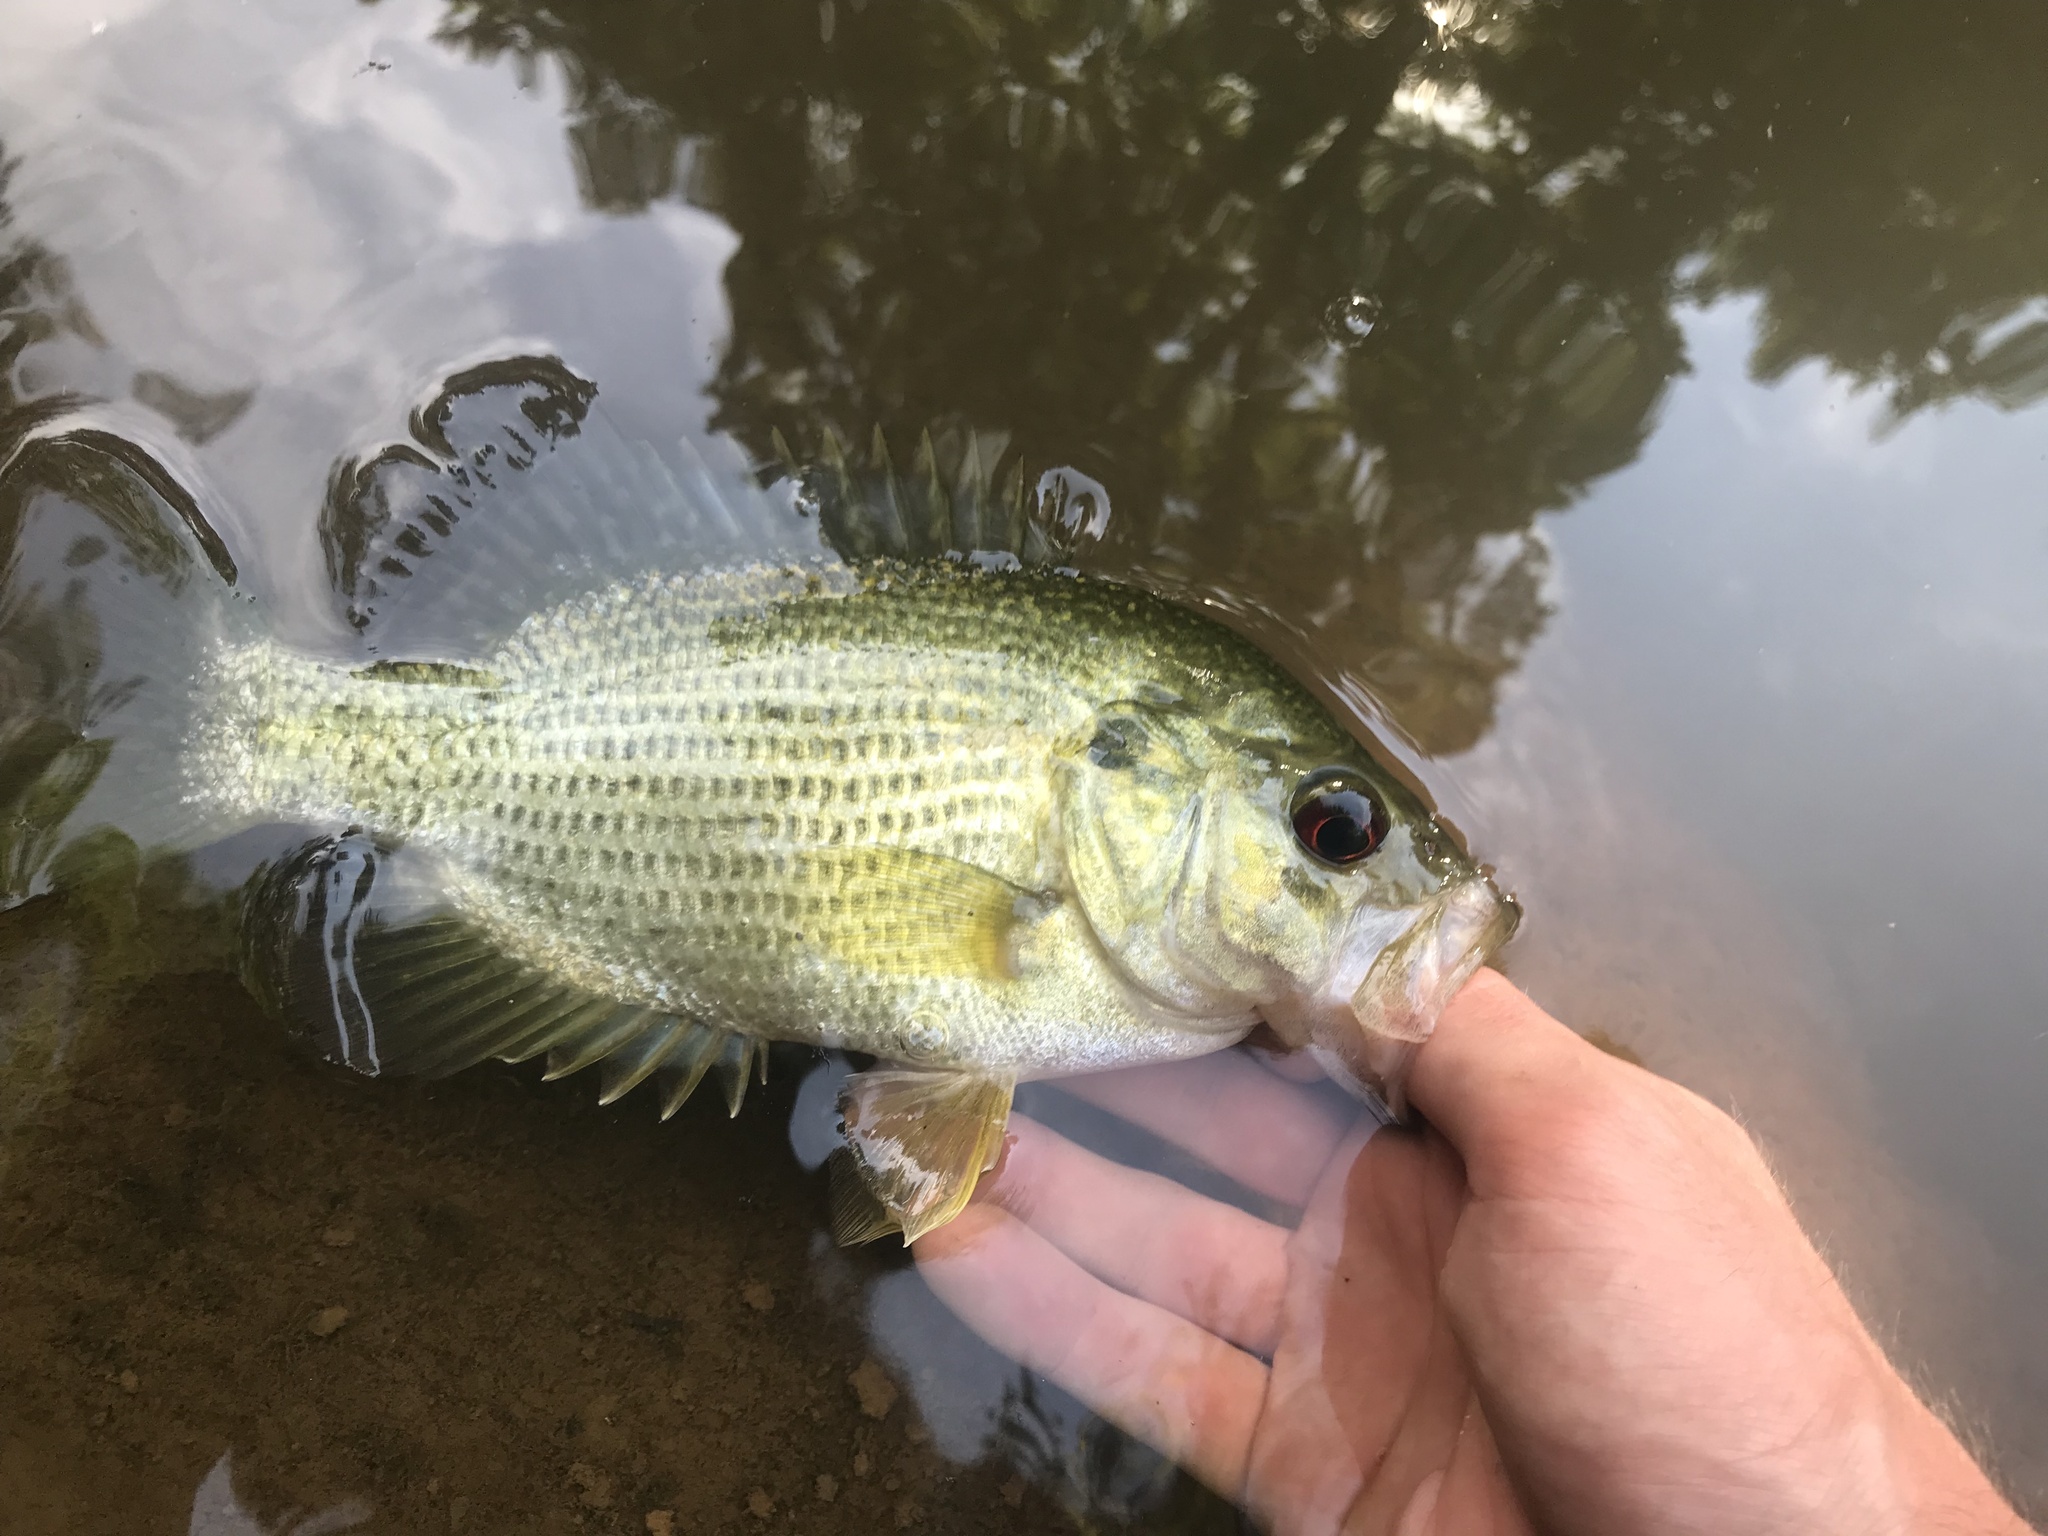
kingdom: Animalia
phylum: Chordata
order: Perciformes
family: Centrarchidae
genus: Ambloplites
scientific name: Ambloplites cavifrons
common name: Roanoke bass
